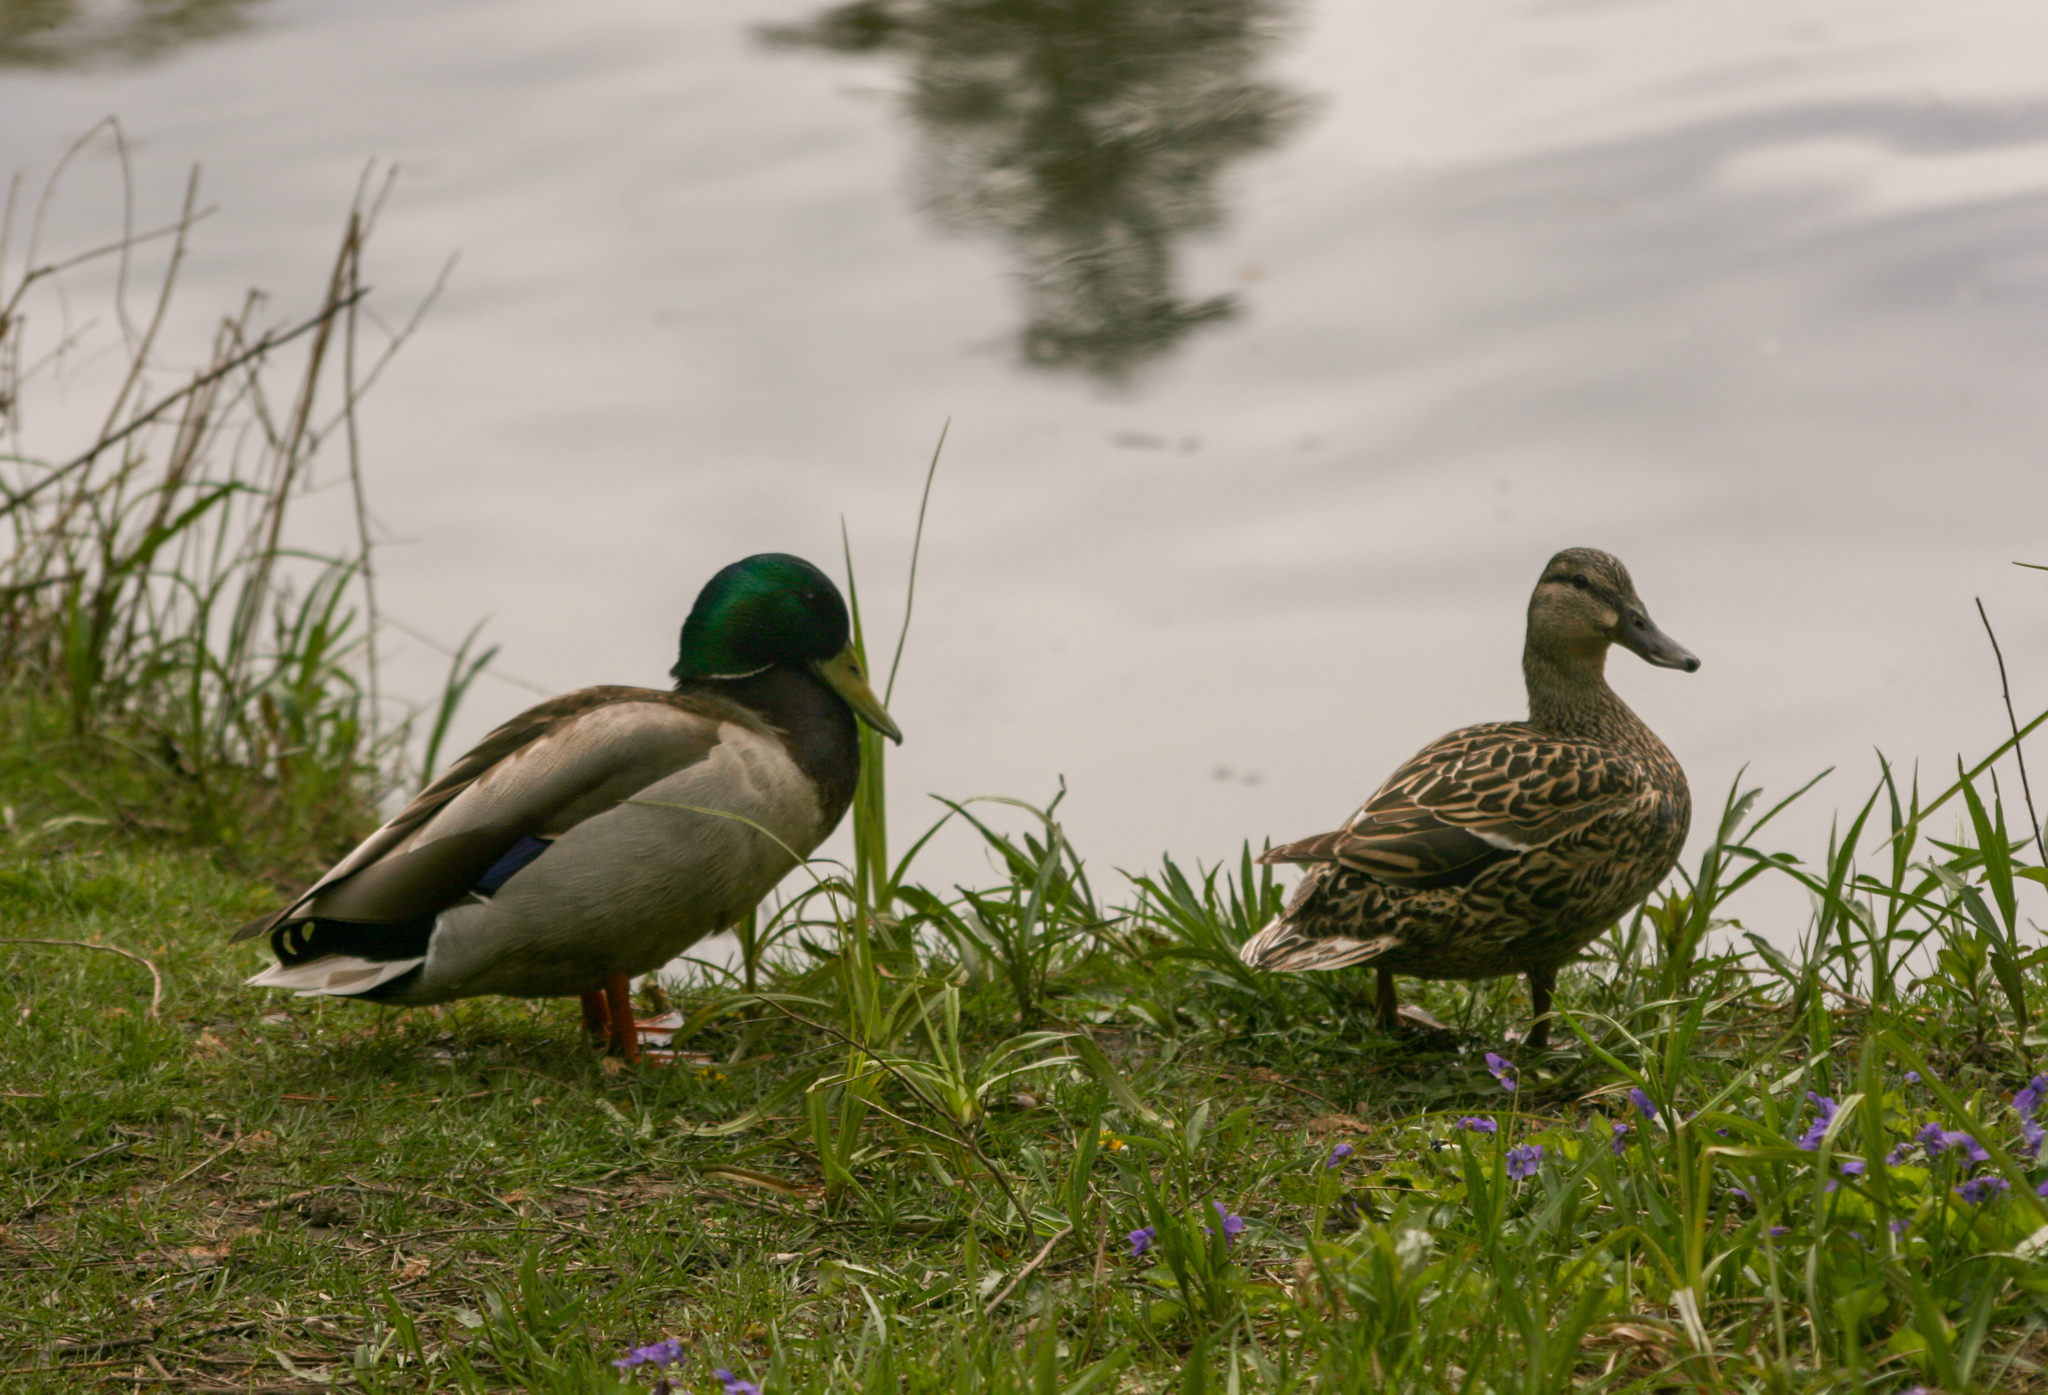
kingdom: Animalia
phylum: Chordata
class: Aves
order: Anseriformes
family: Anatidae
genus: Anas
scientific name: Anas platyrhynchos
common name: Mallard
